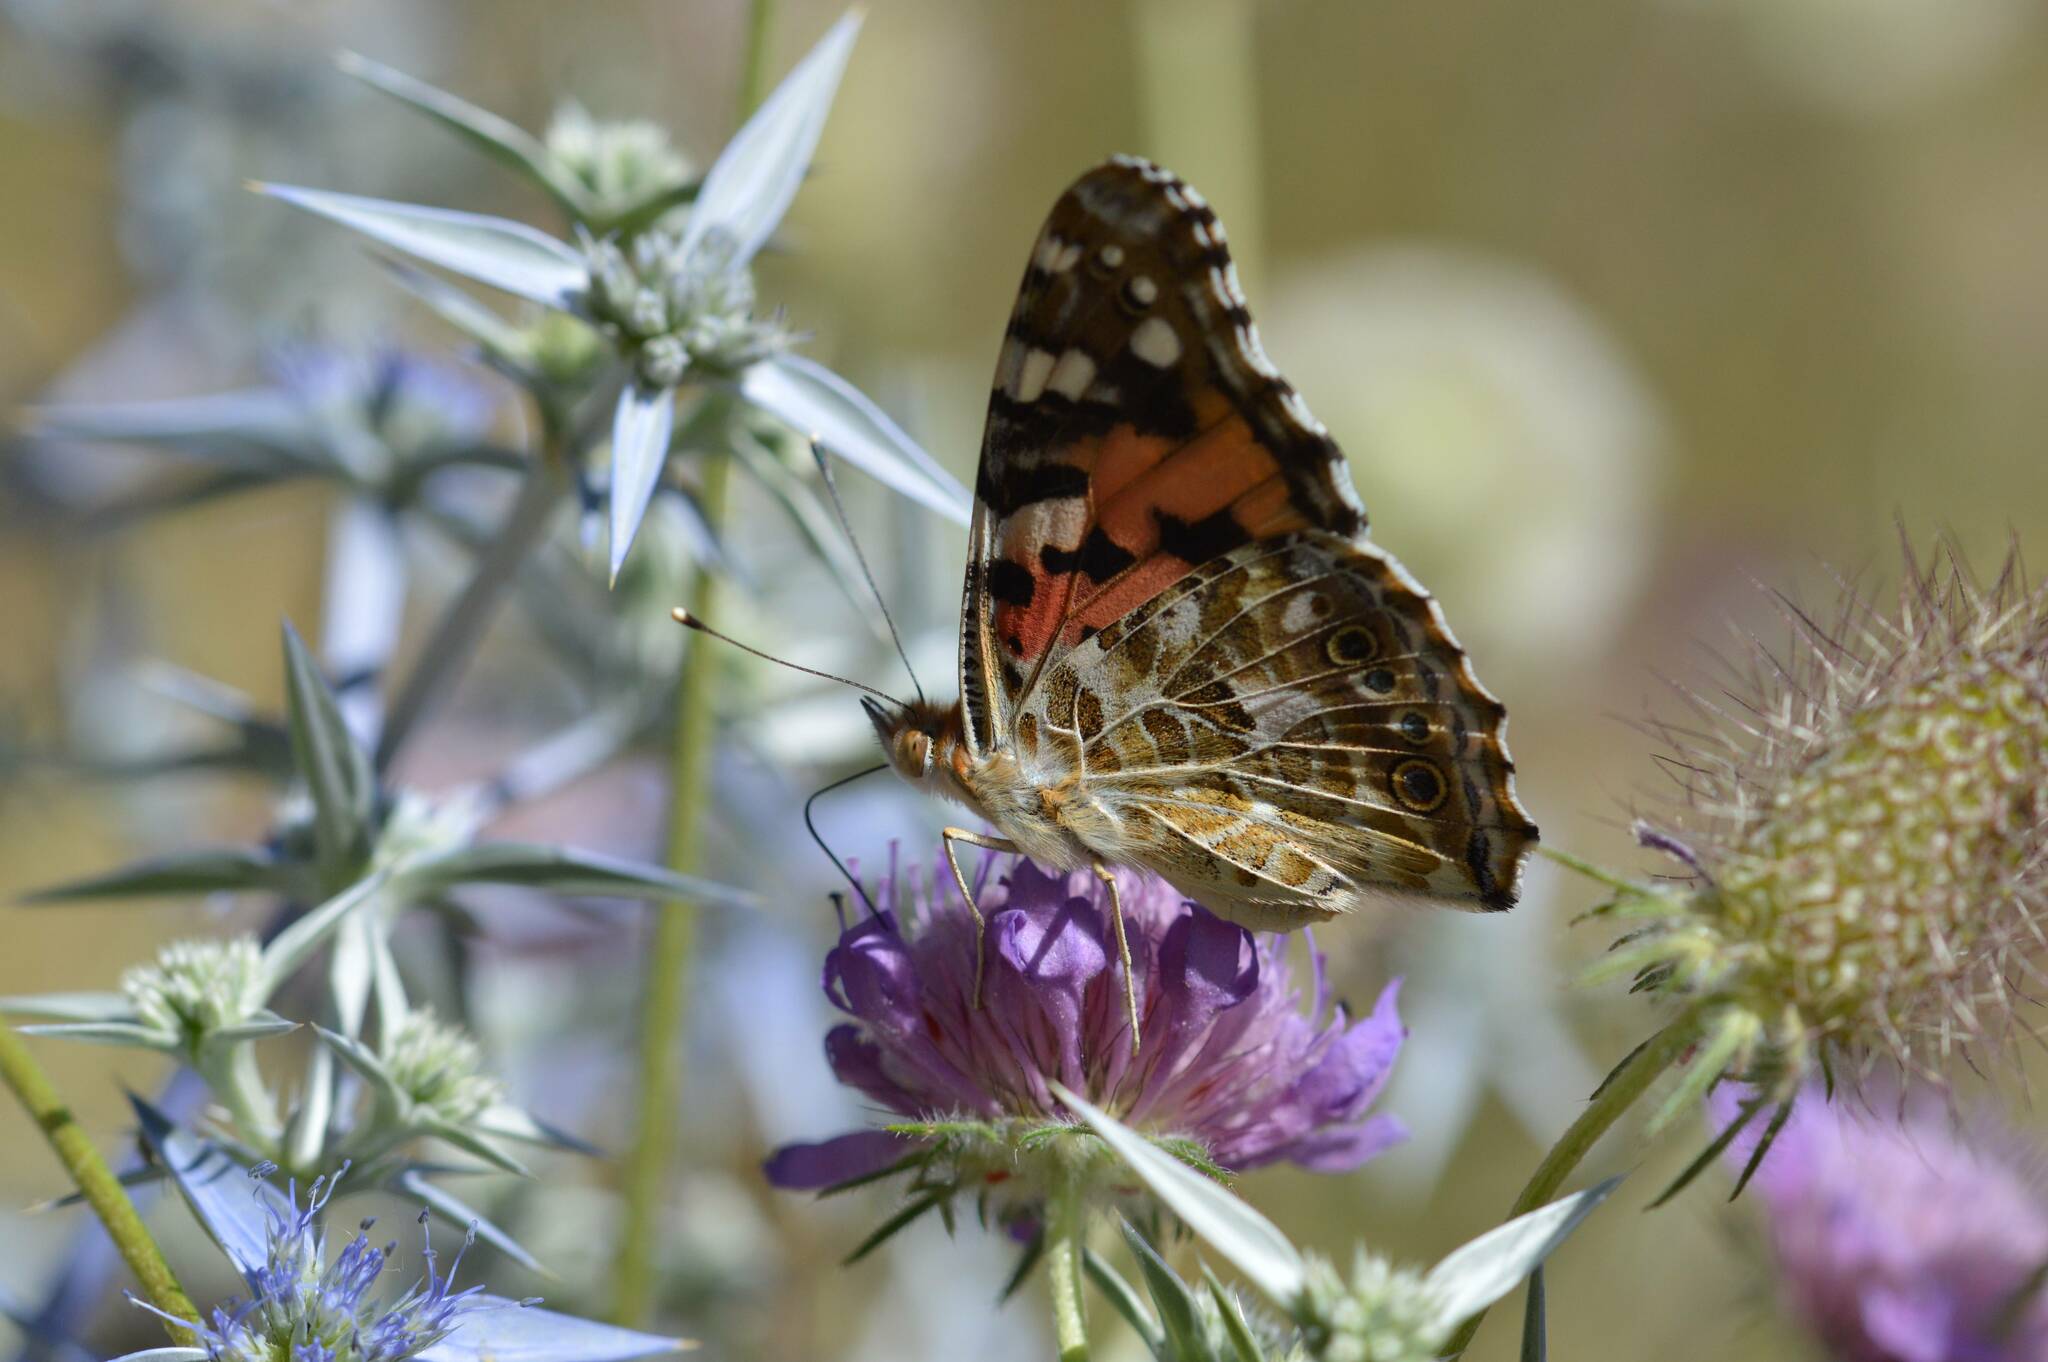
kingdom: Animalia
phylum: Arthropoda
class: Insecta
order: Lepidoptera
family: Nymphalidae
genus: Vanessa
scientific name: Vanessa cardui
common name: Painted lady
